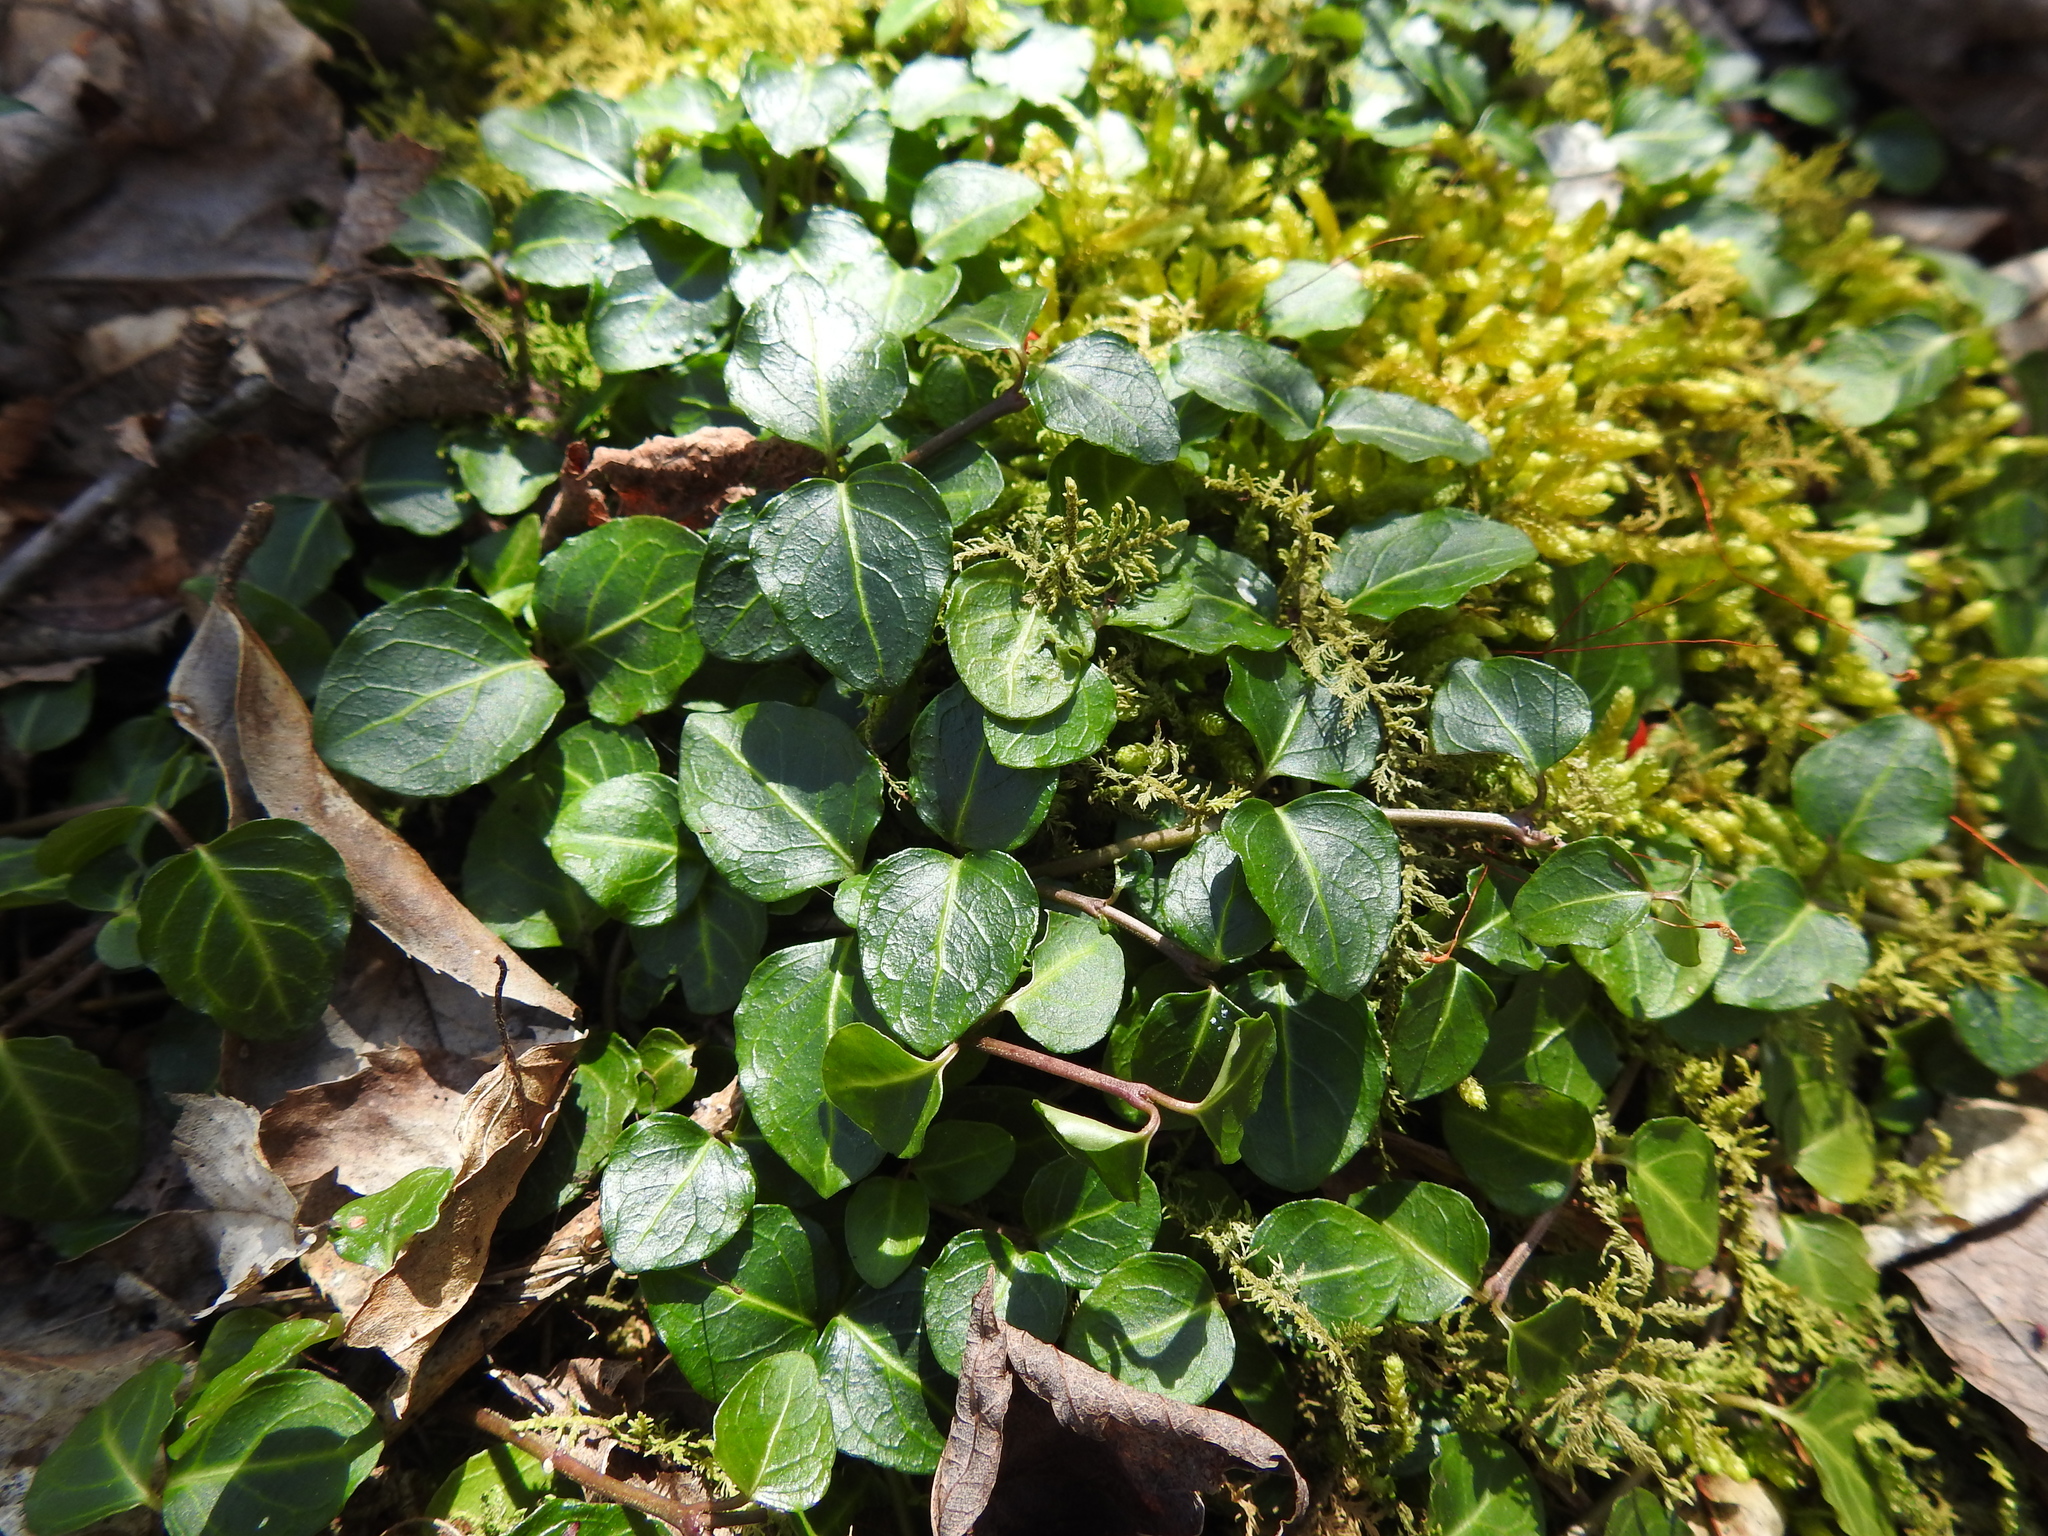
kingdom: Plantae
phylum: Tracheophyta
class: Magnoliopsida
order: Gentianales
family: Rubiaceae
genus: Mitchella
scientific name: Mitchella repens
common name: Partridge-berry
